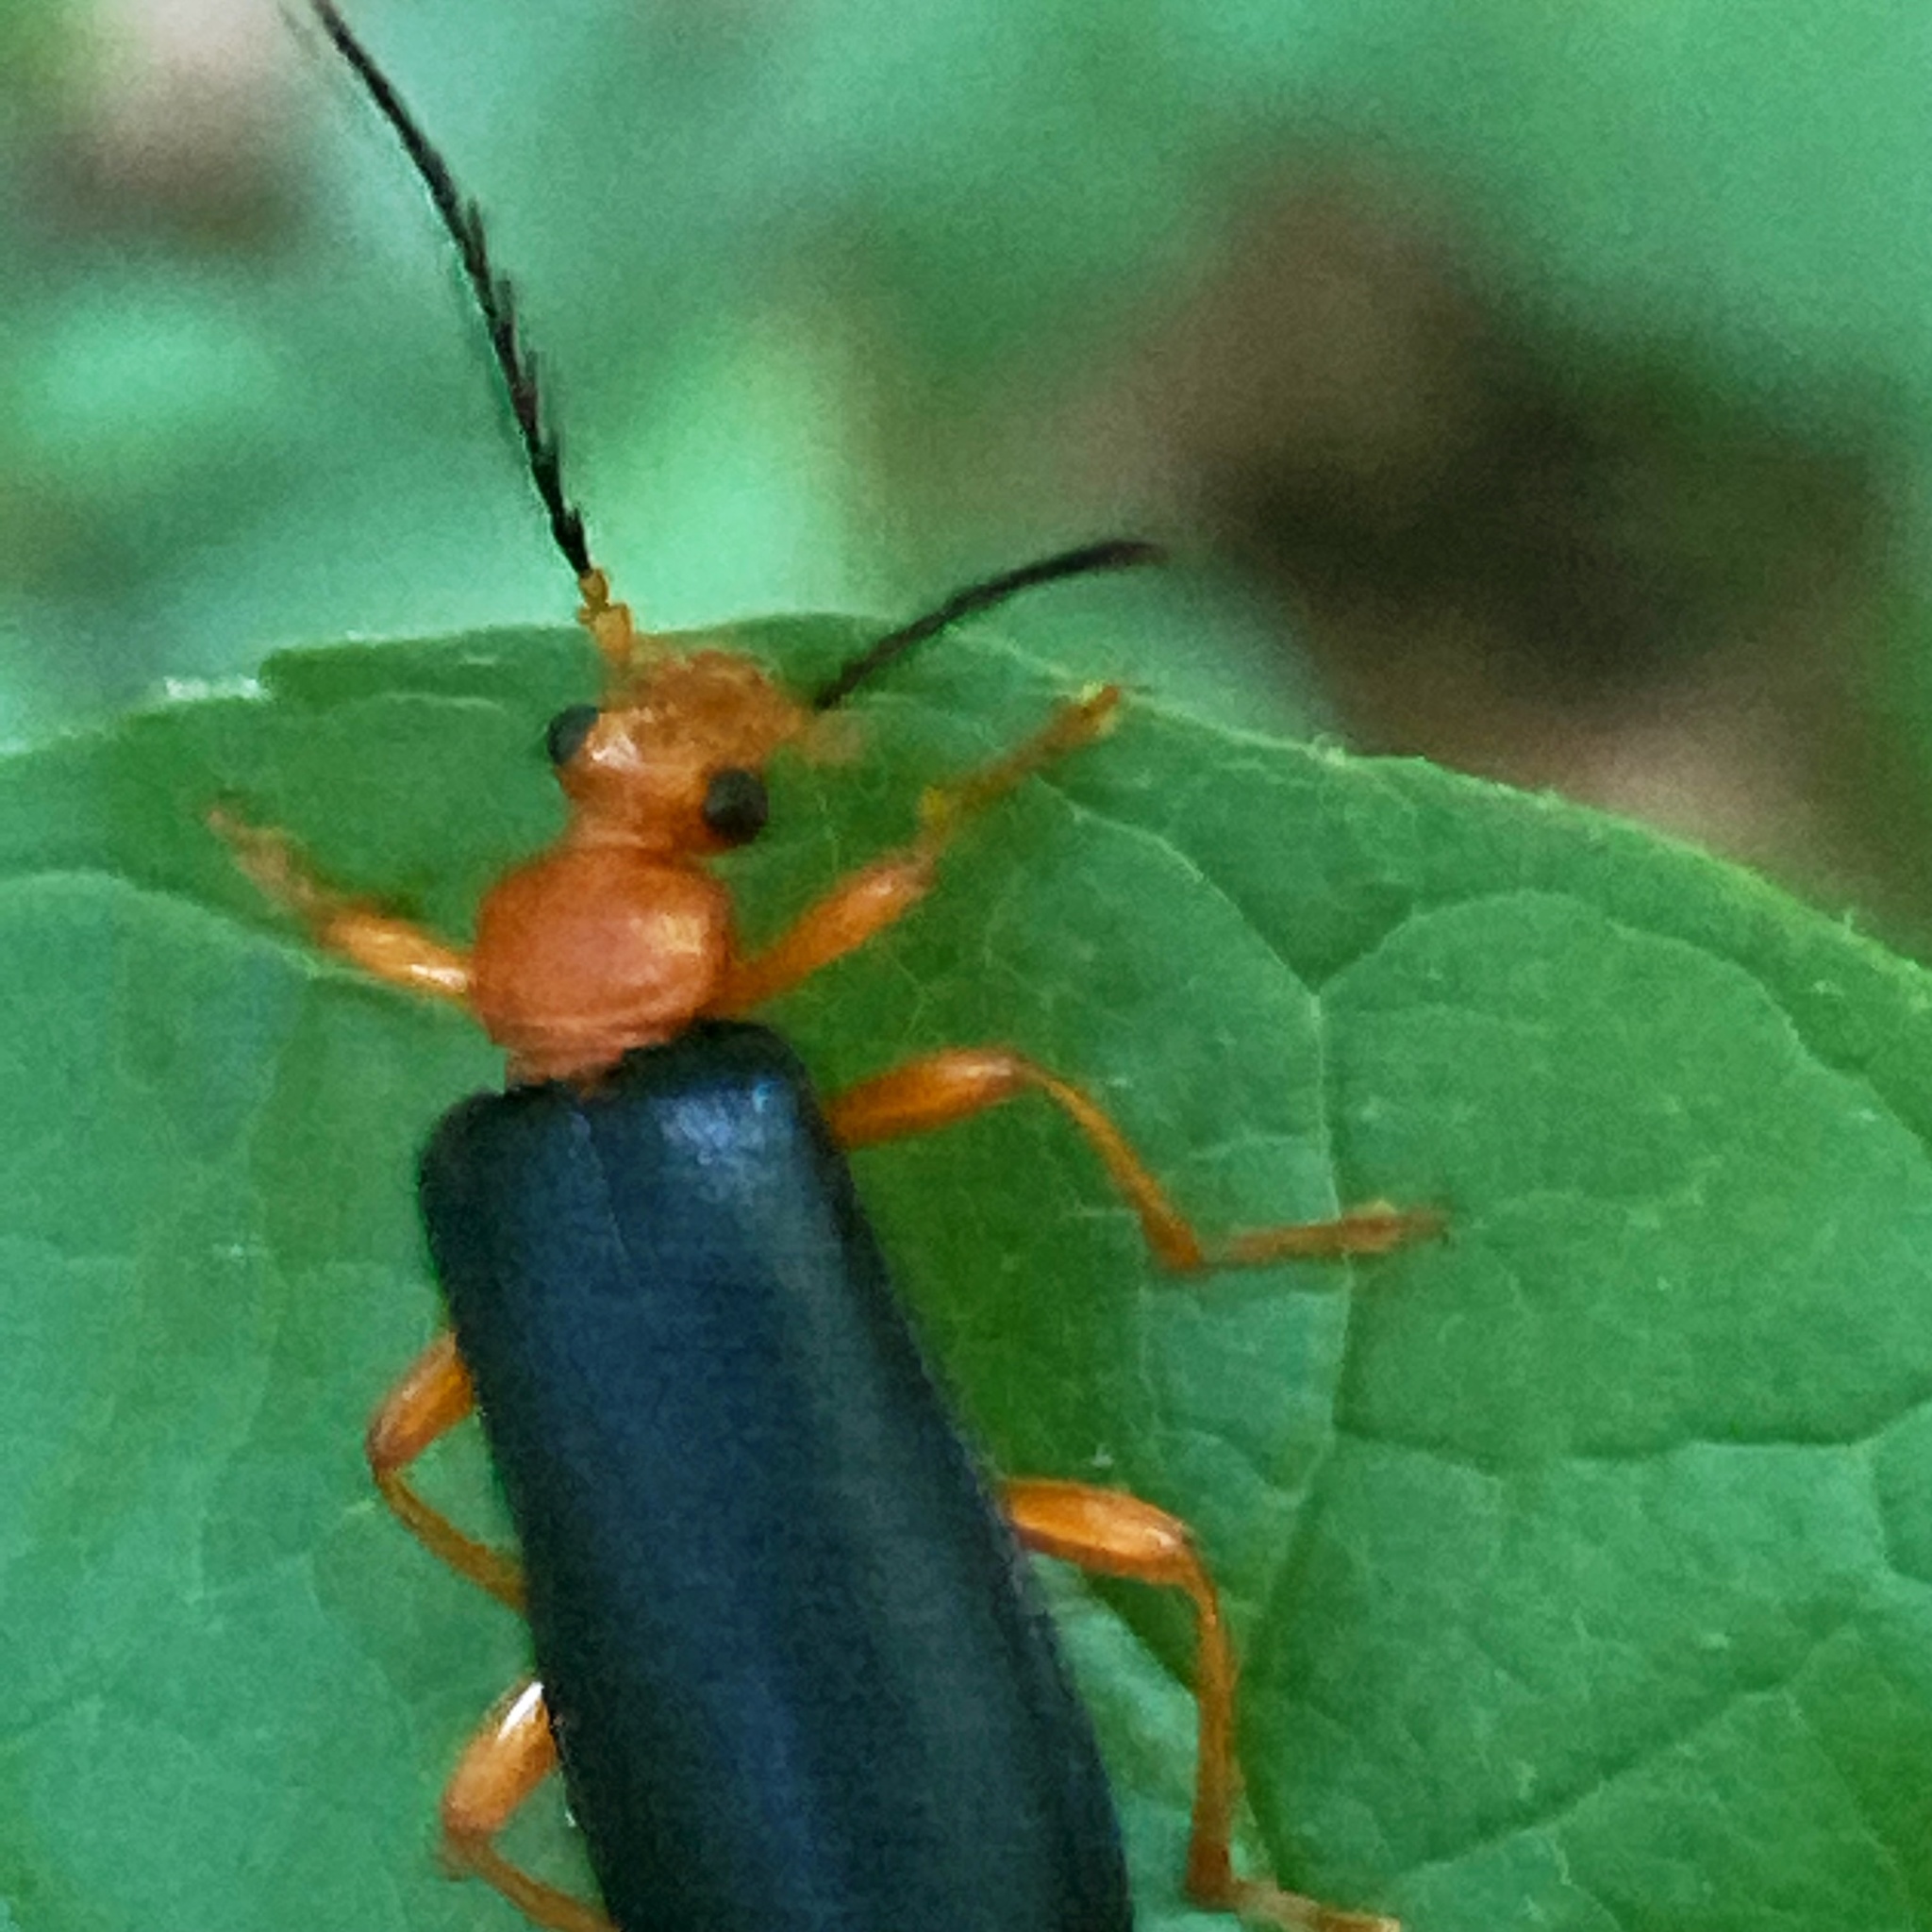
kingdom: Animalia
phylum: Arthropoda
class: Insecta
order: Coleoptera
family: Pyrochroidae
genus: Neopyrochroa
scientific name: Neopyrochroa flabellata
